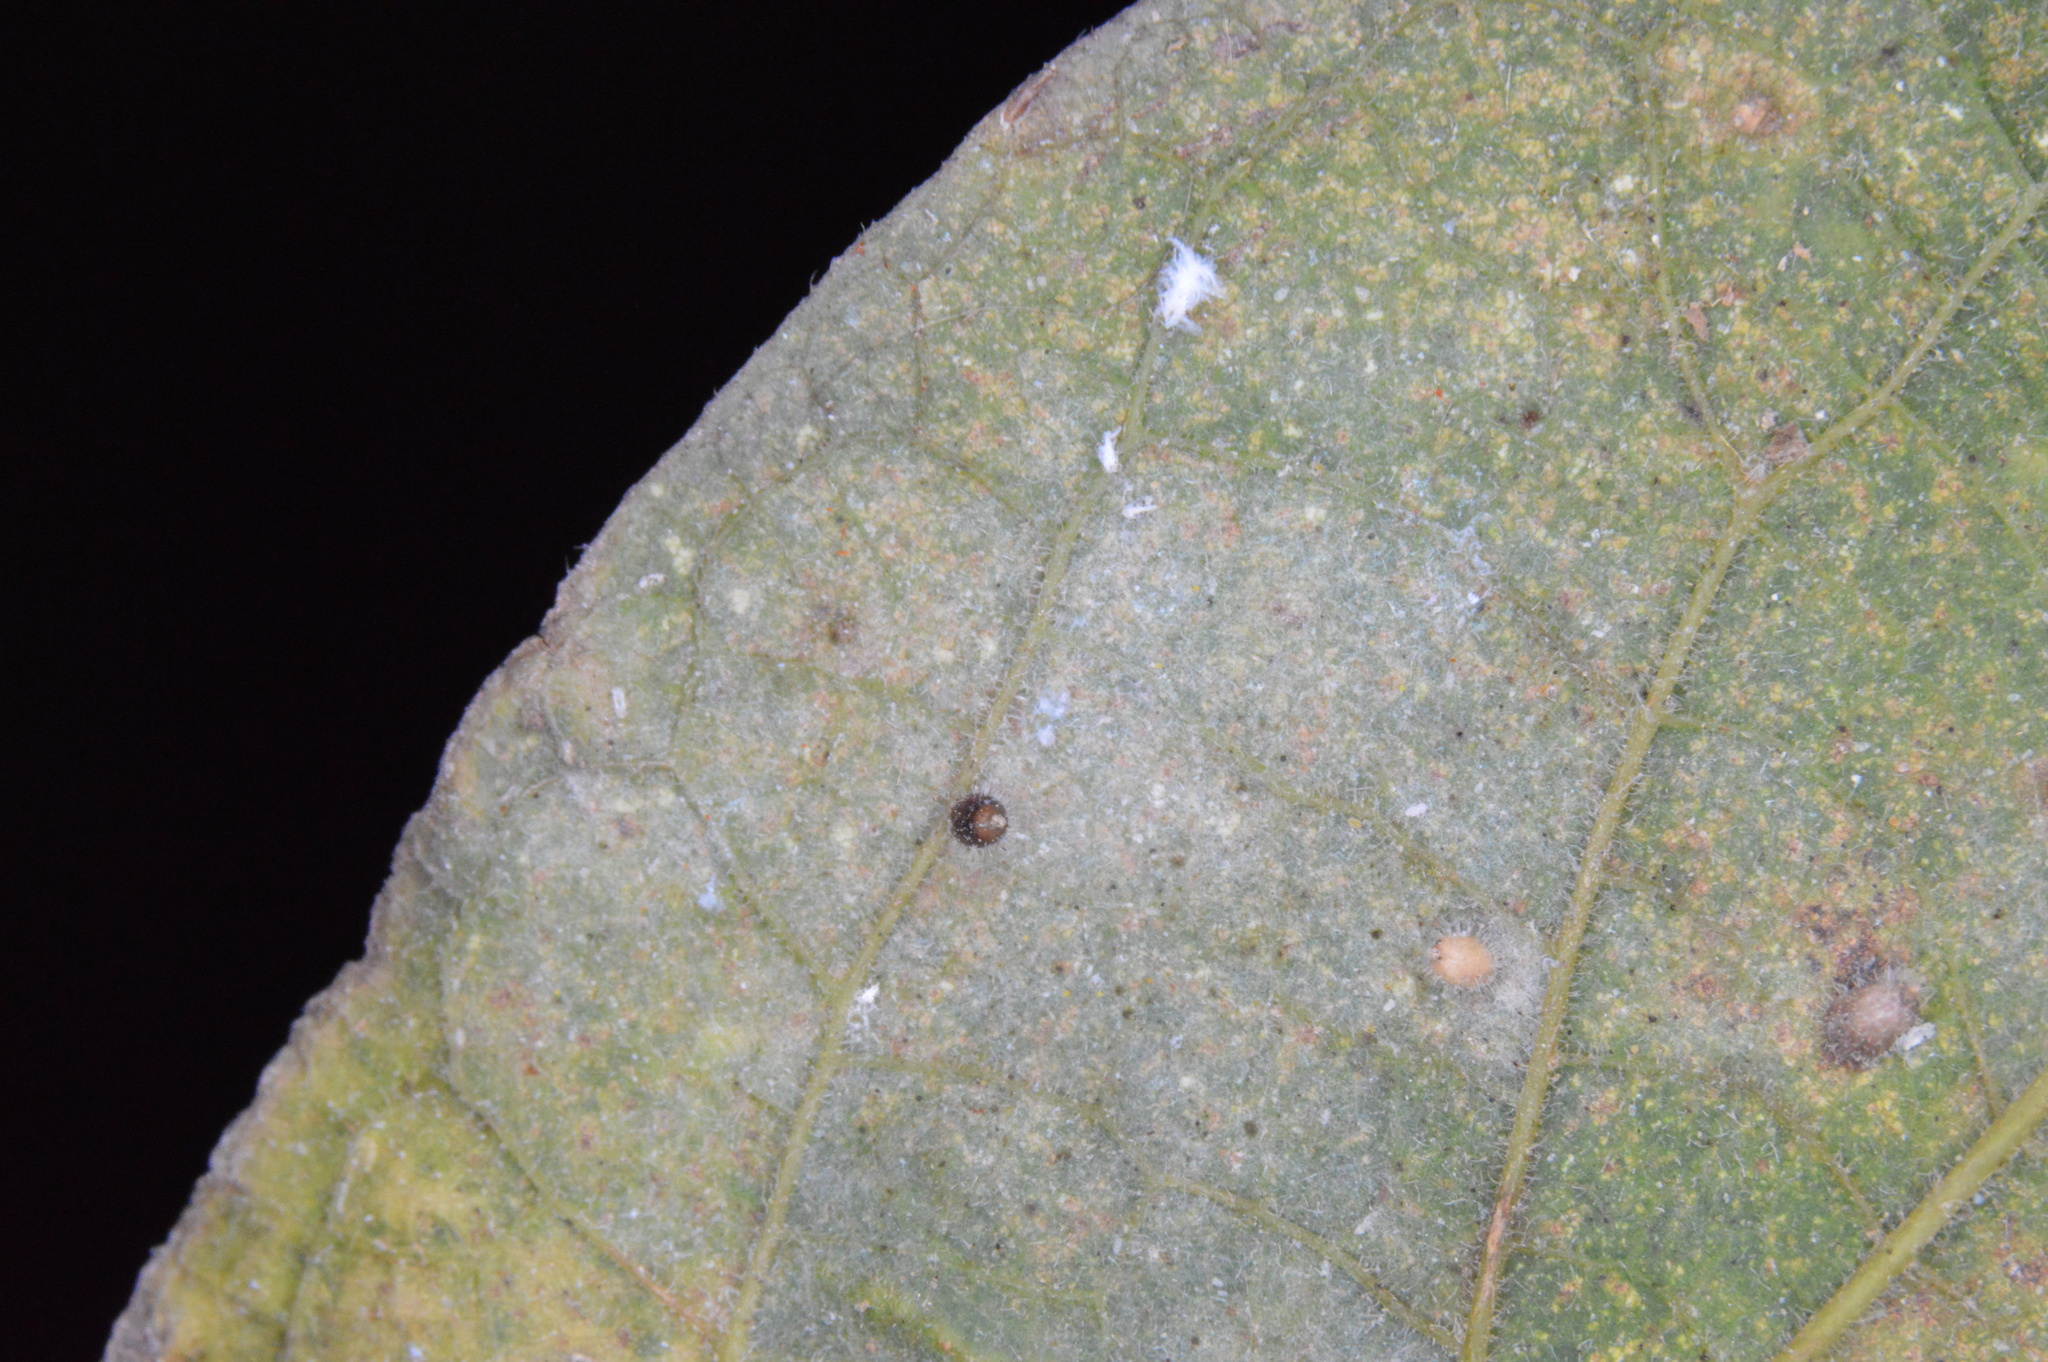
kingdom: Animalia
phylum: Arthropoda
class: Insecta
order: Diptera
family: Cecidomyiidae
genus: Celticecis
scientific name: Celticecis cupiformis
